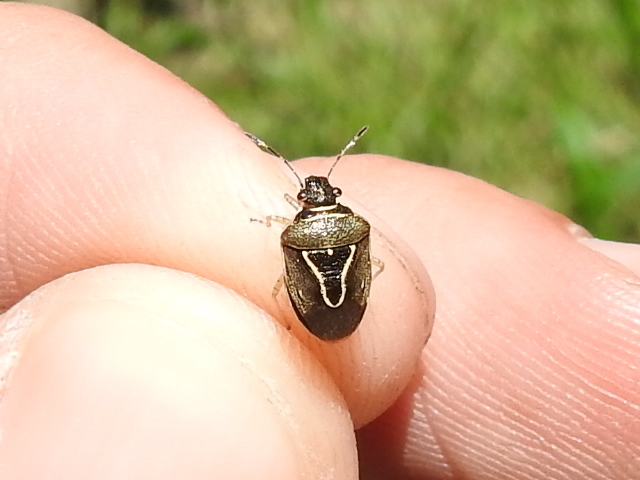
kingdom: Animalia
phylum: Arthropoda
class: Insecta
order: Hemiptera
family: Pentatomidae
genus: Mormidea
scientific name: Mormidea lugens
